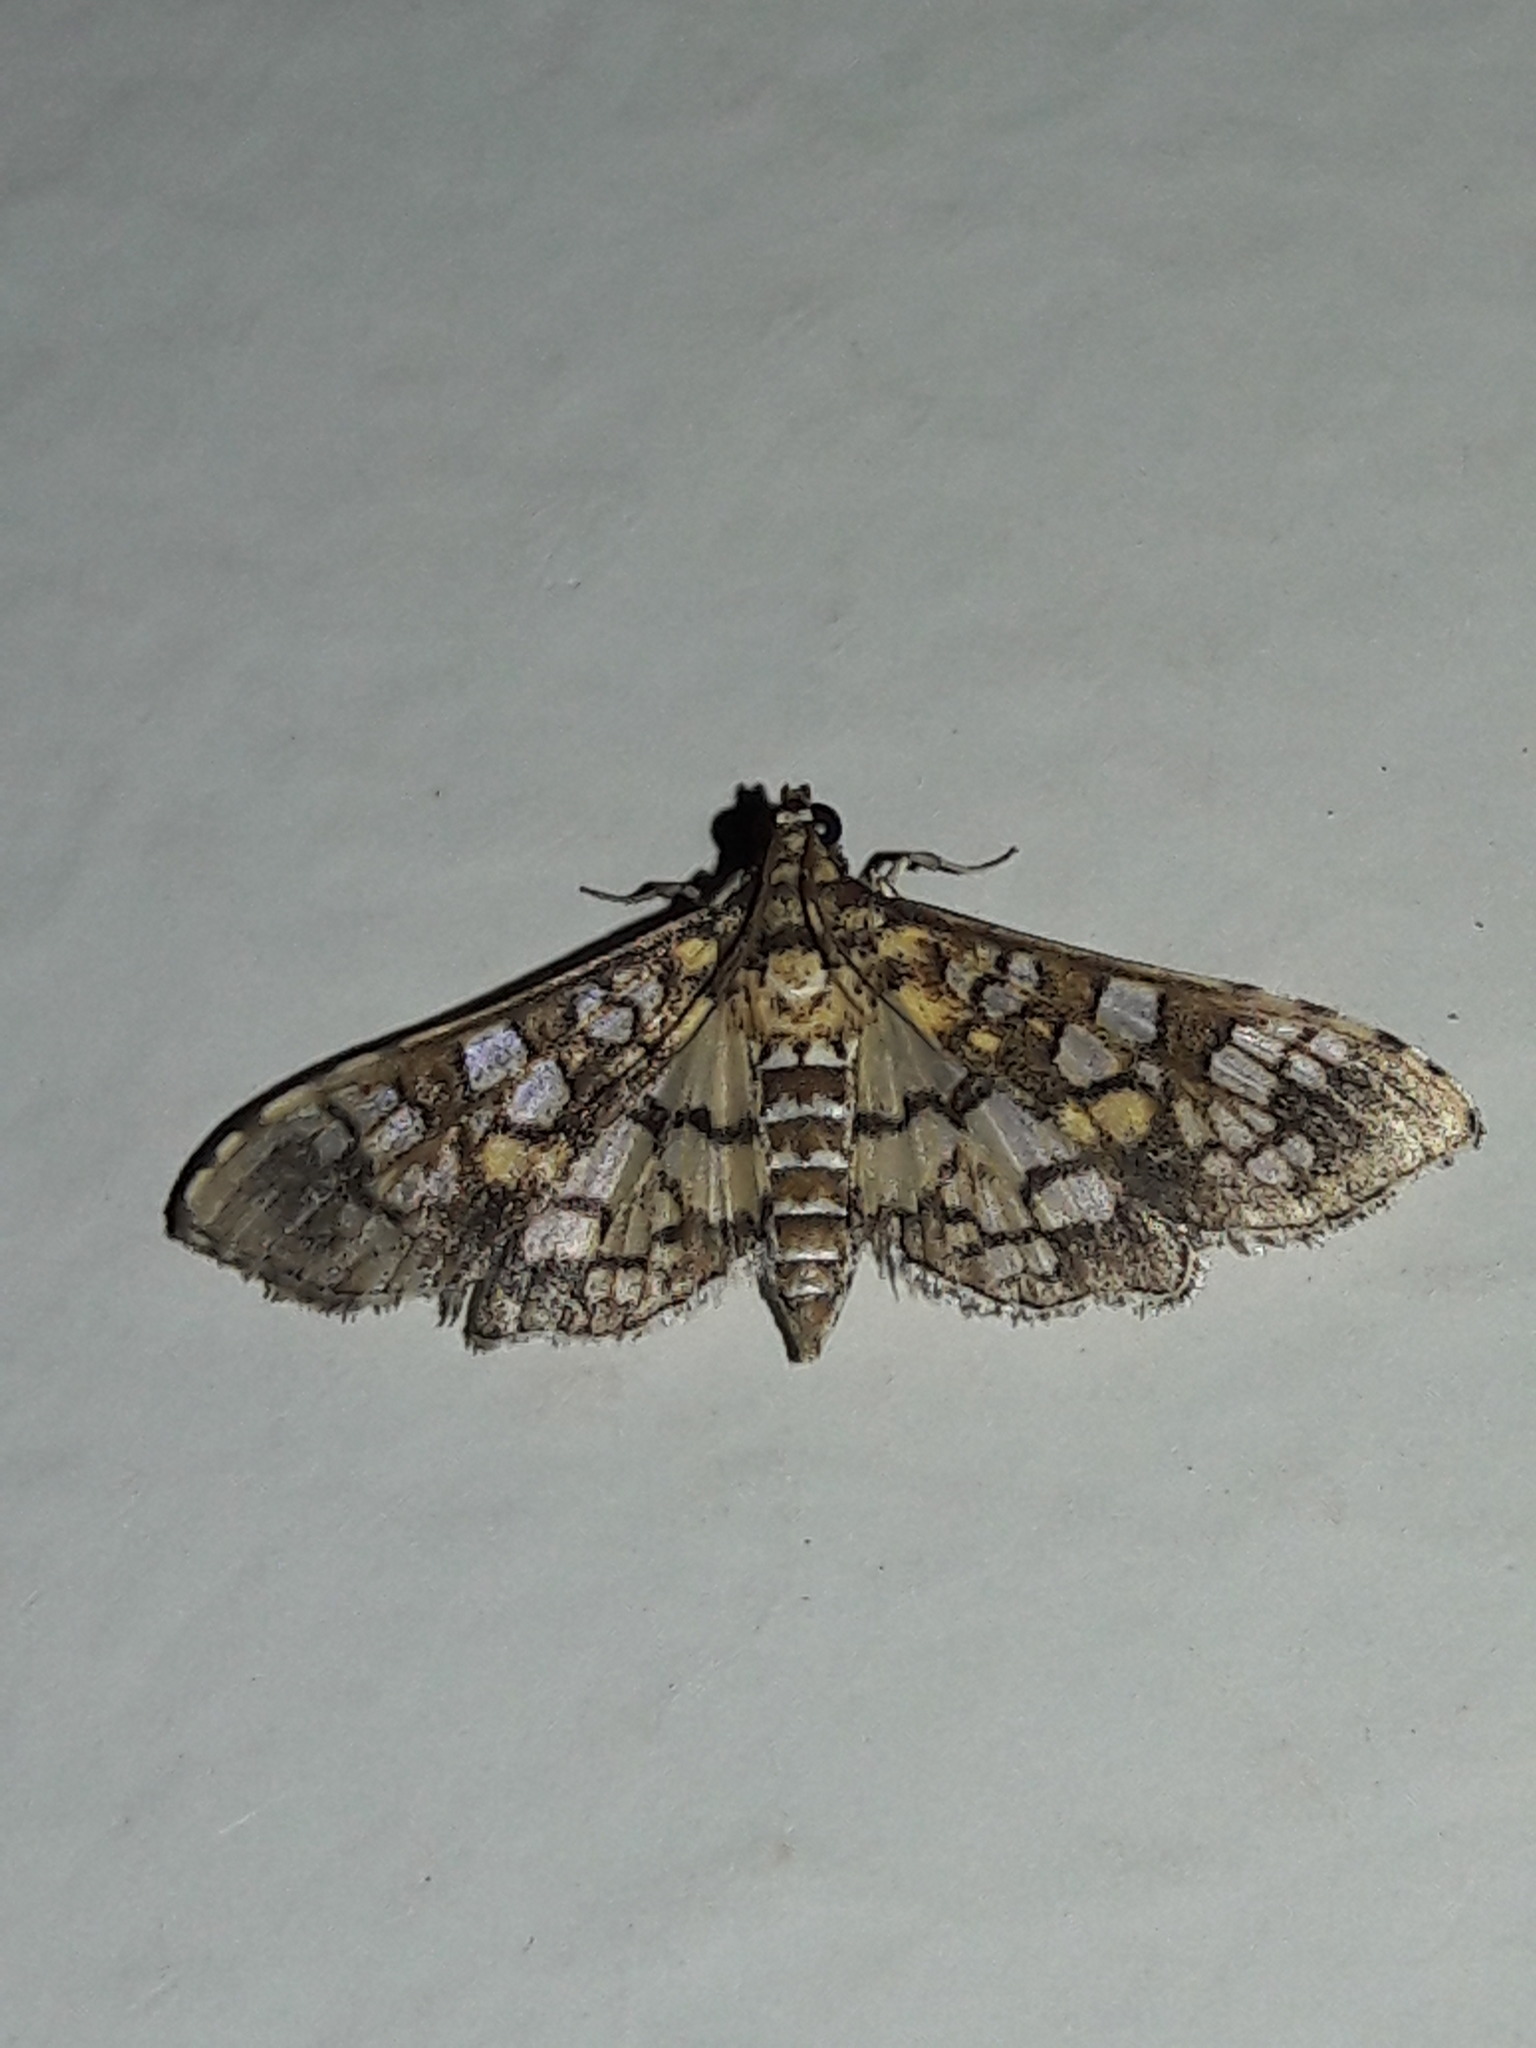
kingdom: Animalia
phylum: Arthropoda
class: Insecta
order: Lepidoptera
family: Crambidae
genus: Samea
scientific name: Samea ecclesialis
